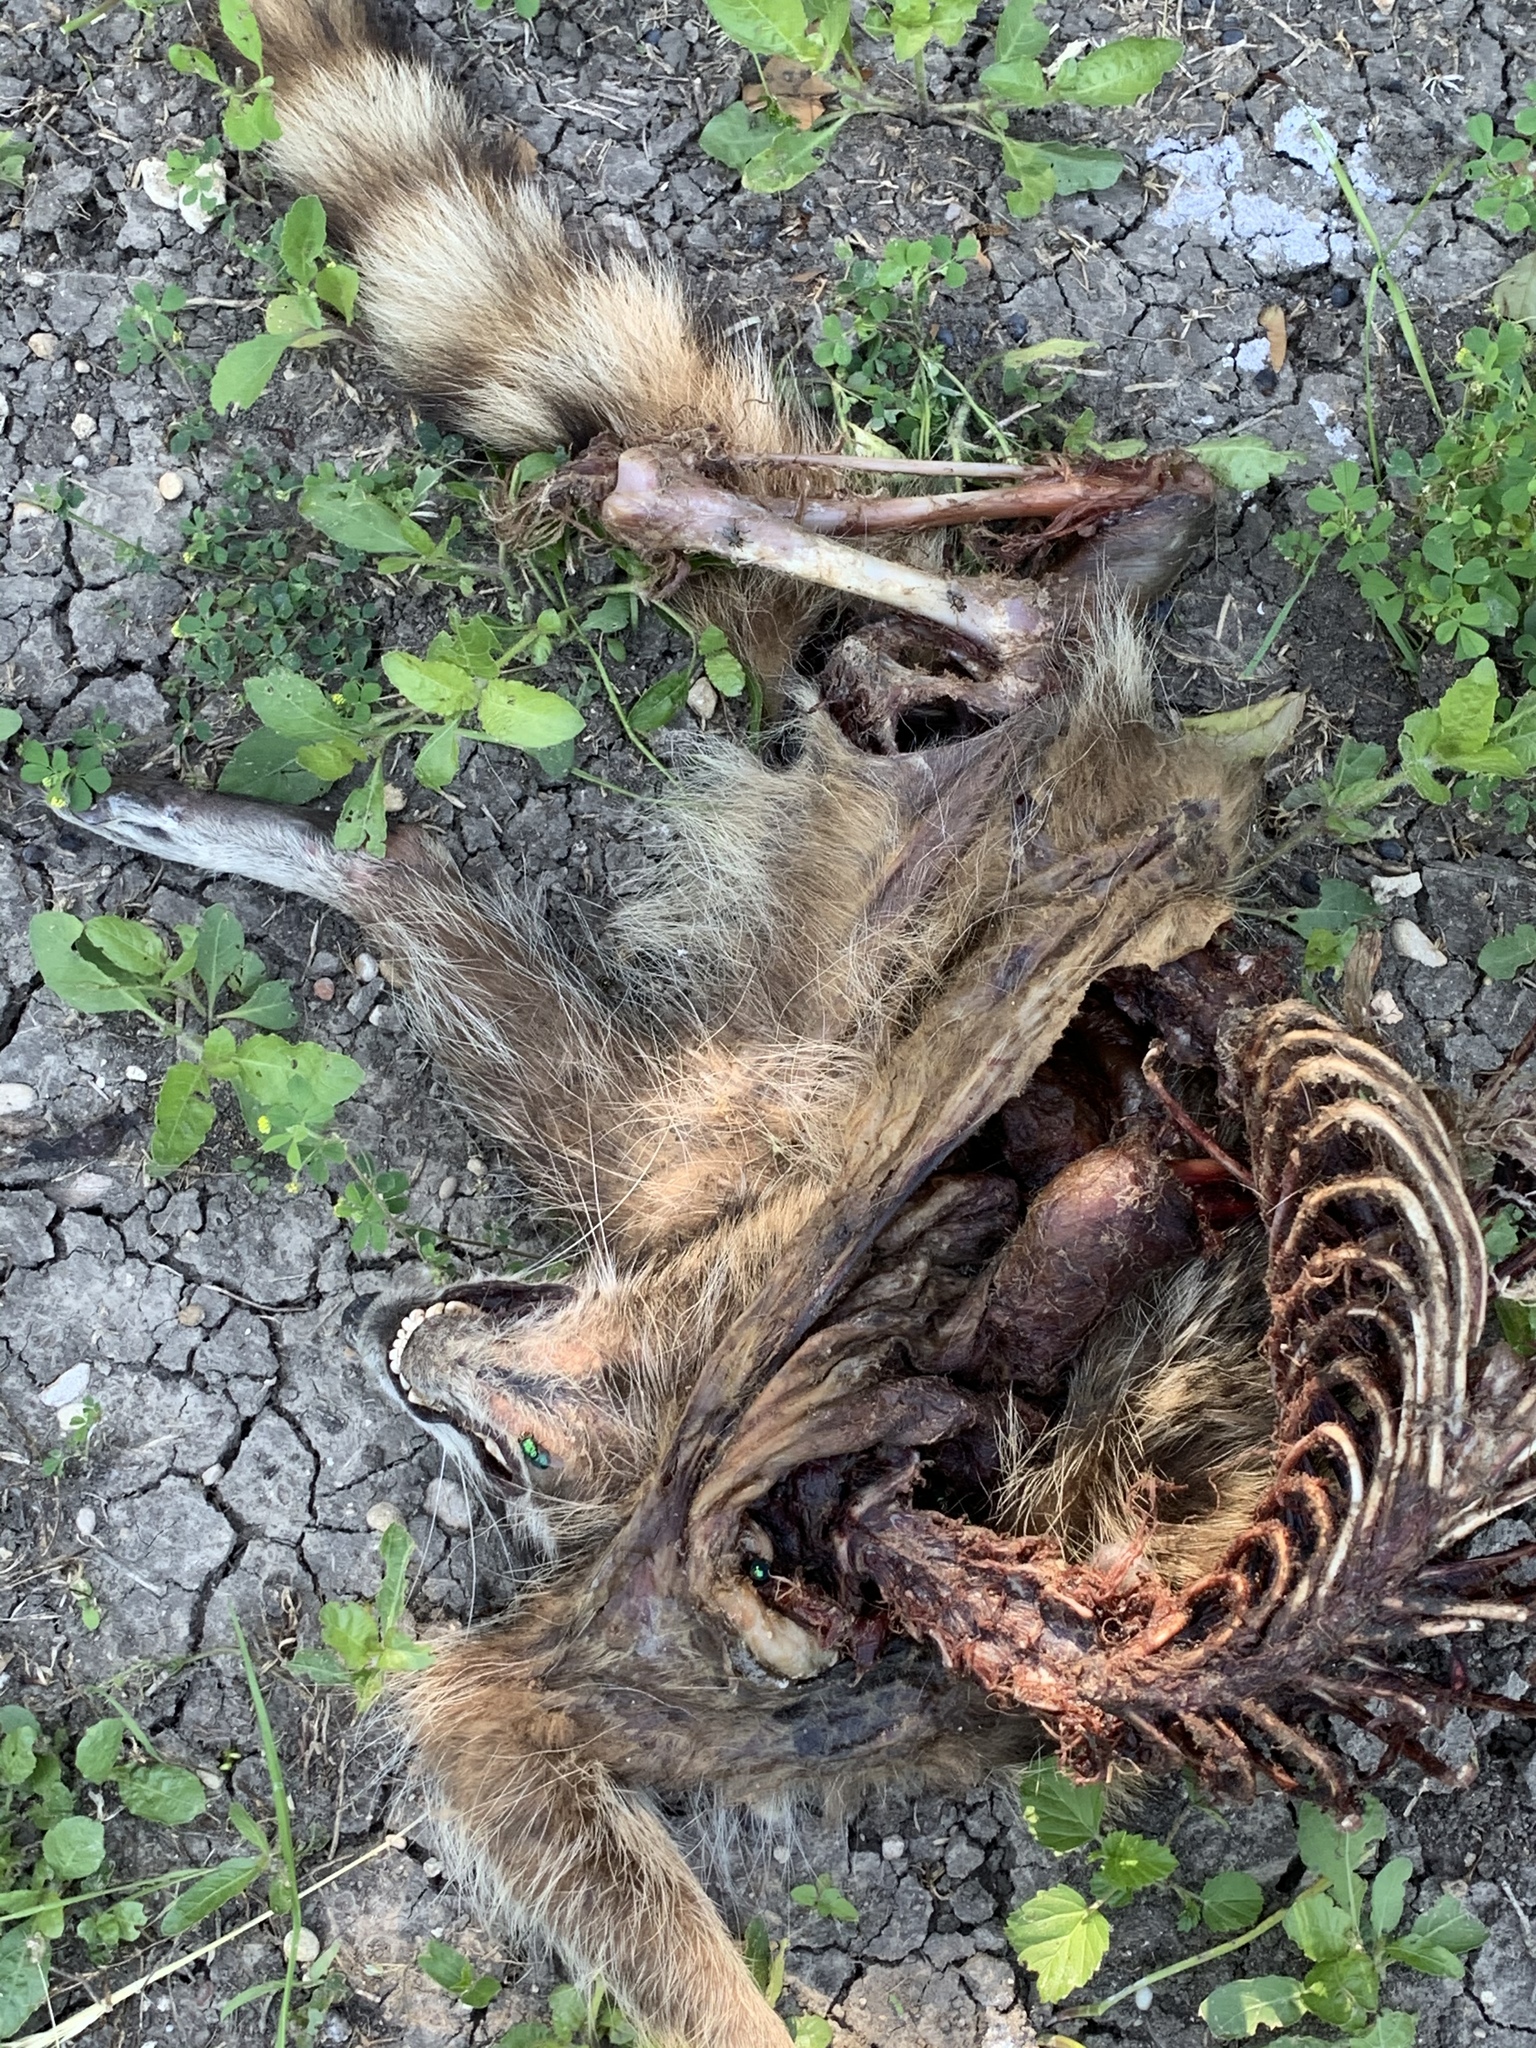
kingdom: Animalia
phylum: Chordata
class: Mammalia
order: Carnivora
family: Procyonidae
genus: Procyon
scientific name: Procyon lotor
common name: Raccoon
